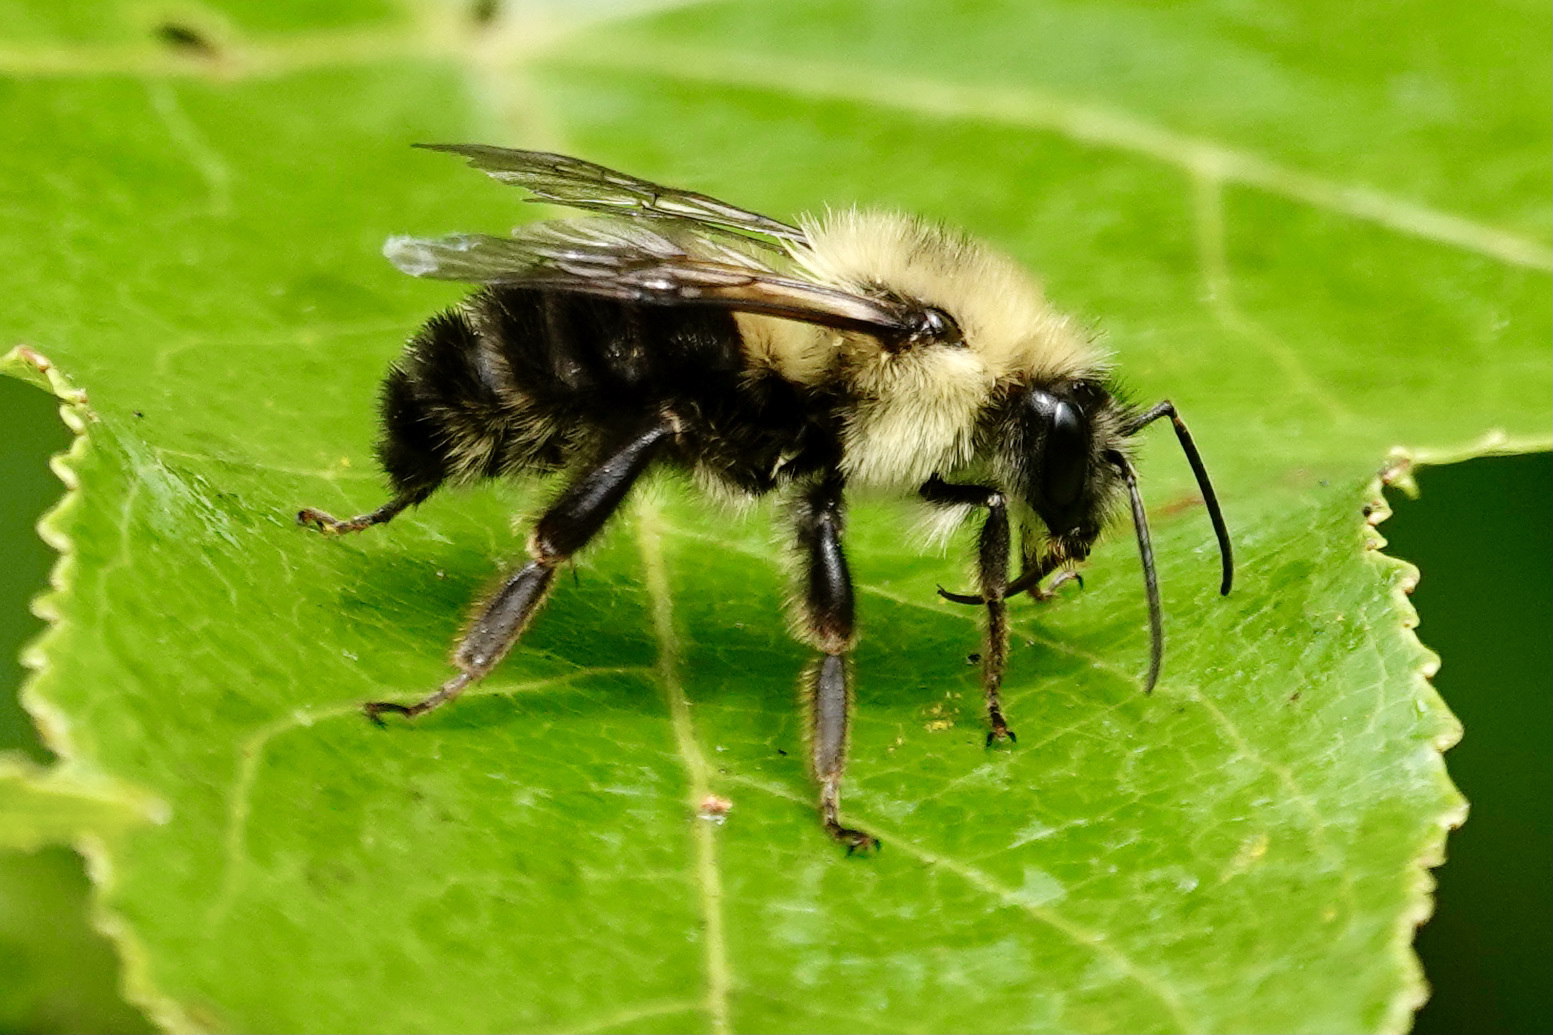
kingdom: Animalia
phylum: Arthropoda
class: Insecta
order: Hymenoptera
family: Apidae
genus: Bombus
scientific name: Bombus bimaculatus
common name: Two-spotted bumble bee
